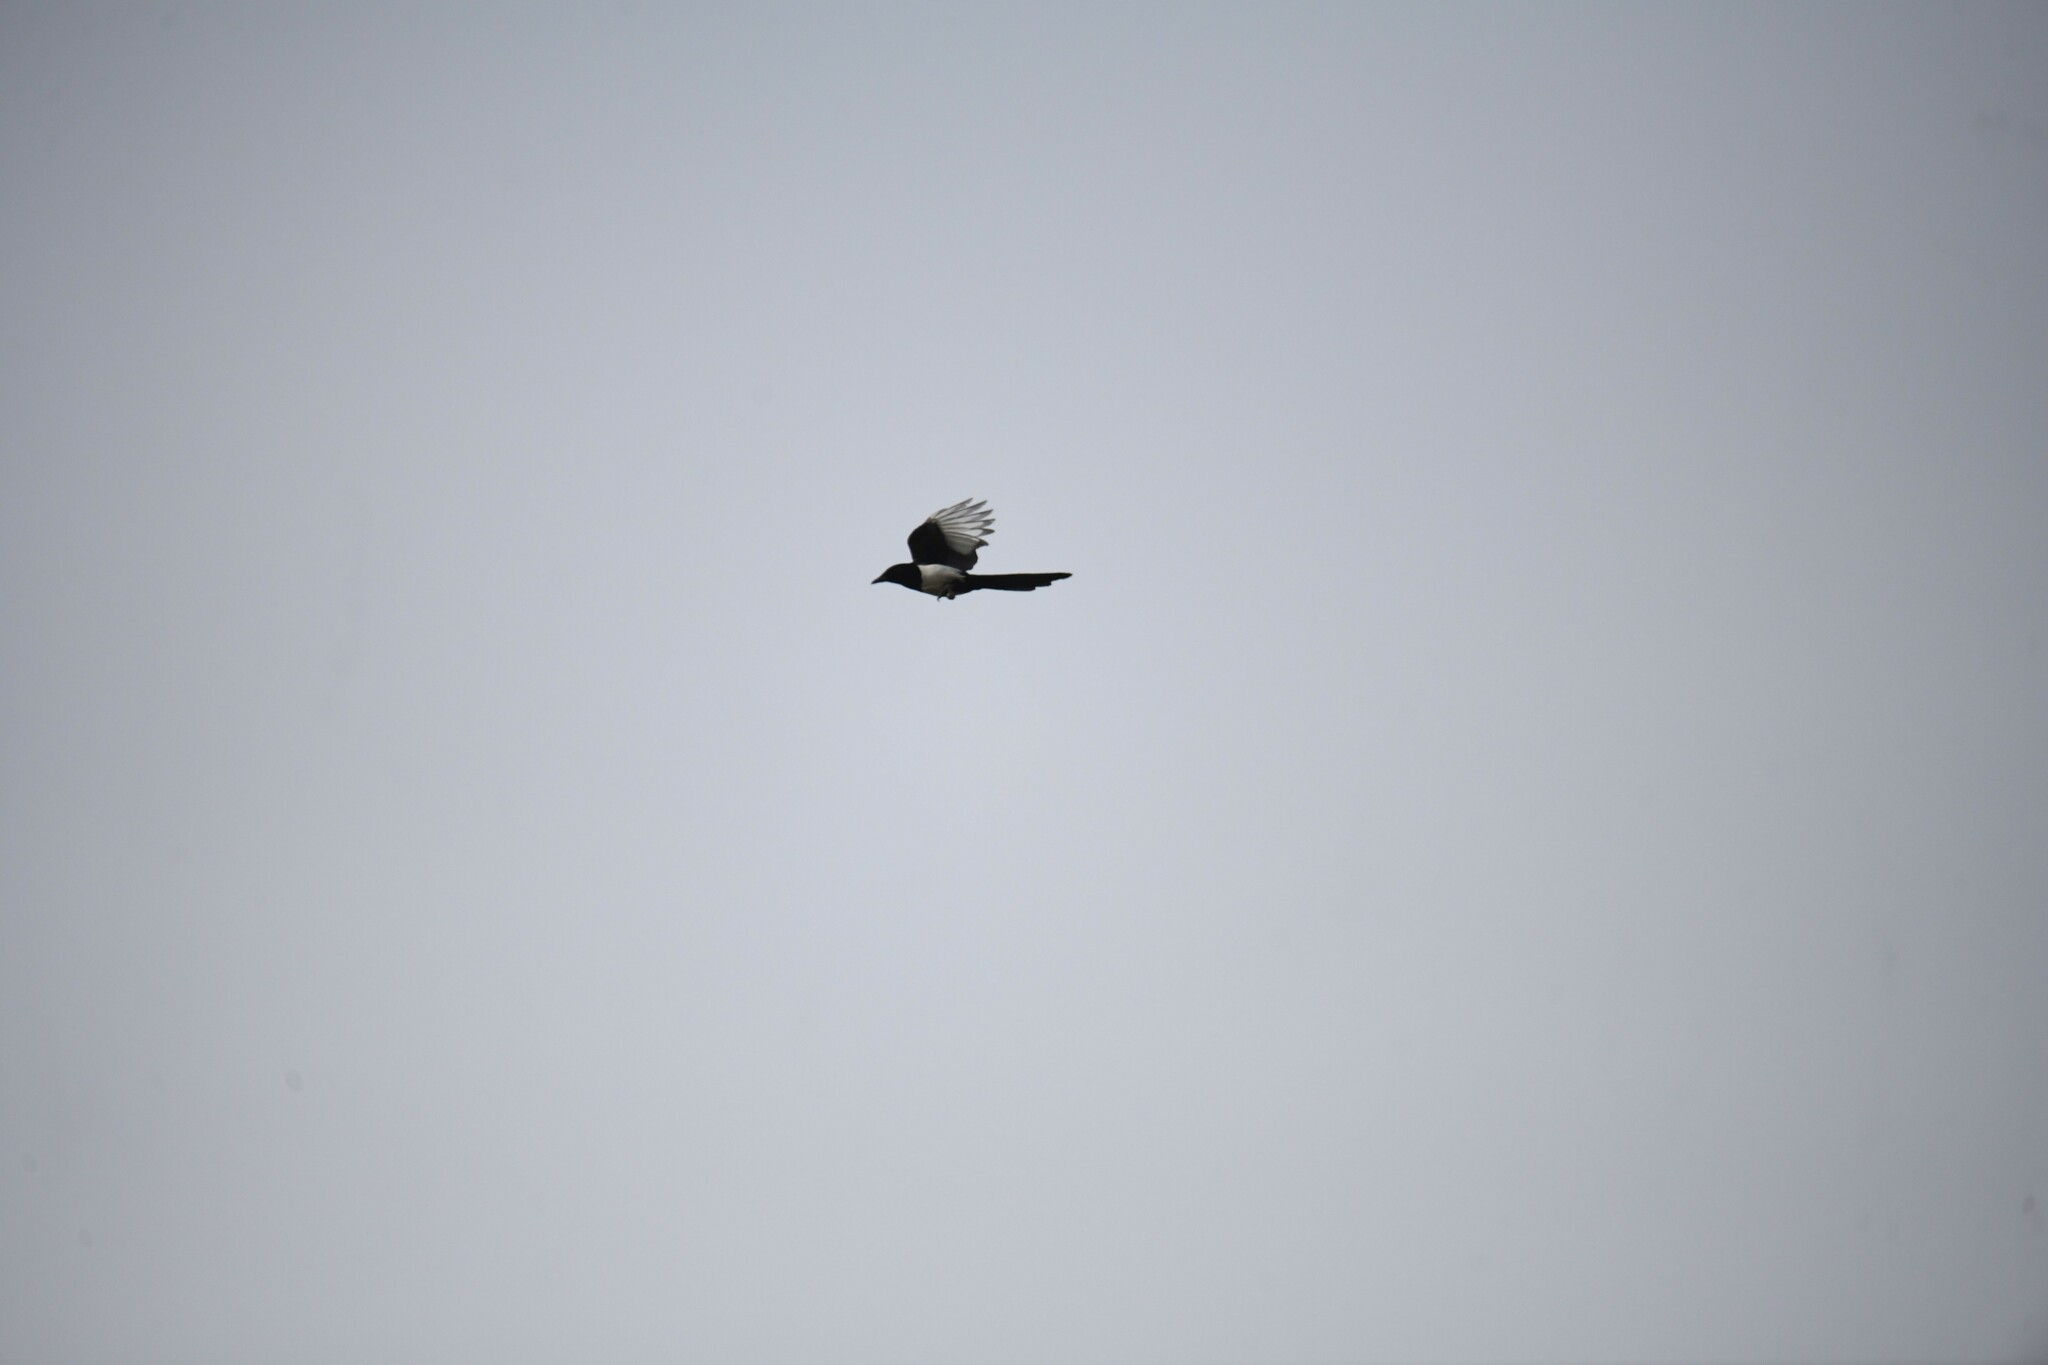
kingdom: Animalia
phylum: Chordata
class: Aves
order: Passeriformes
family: Corvidae
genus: Pica
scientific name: Pica pica
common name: Eurasian magpie
